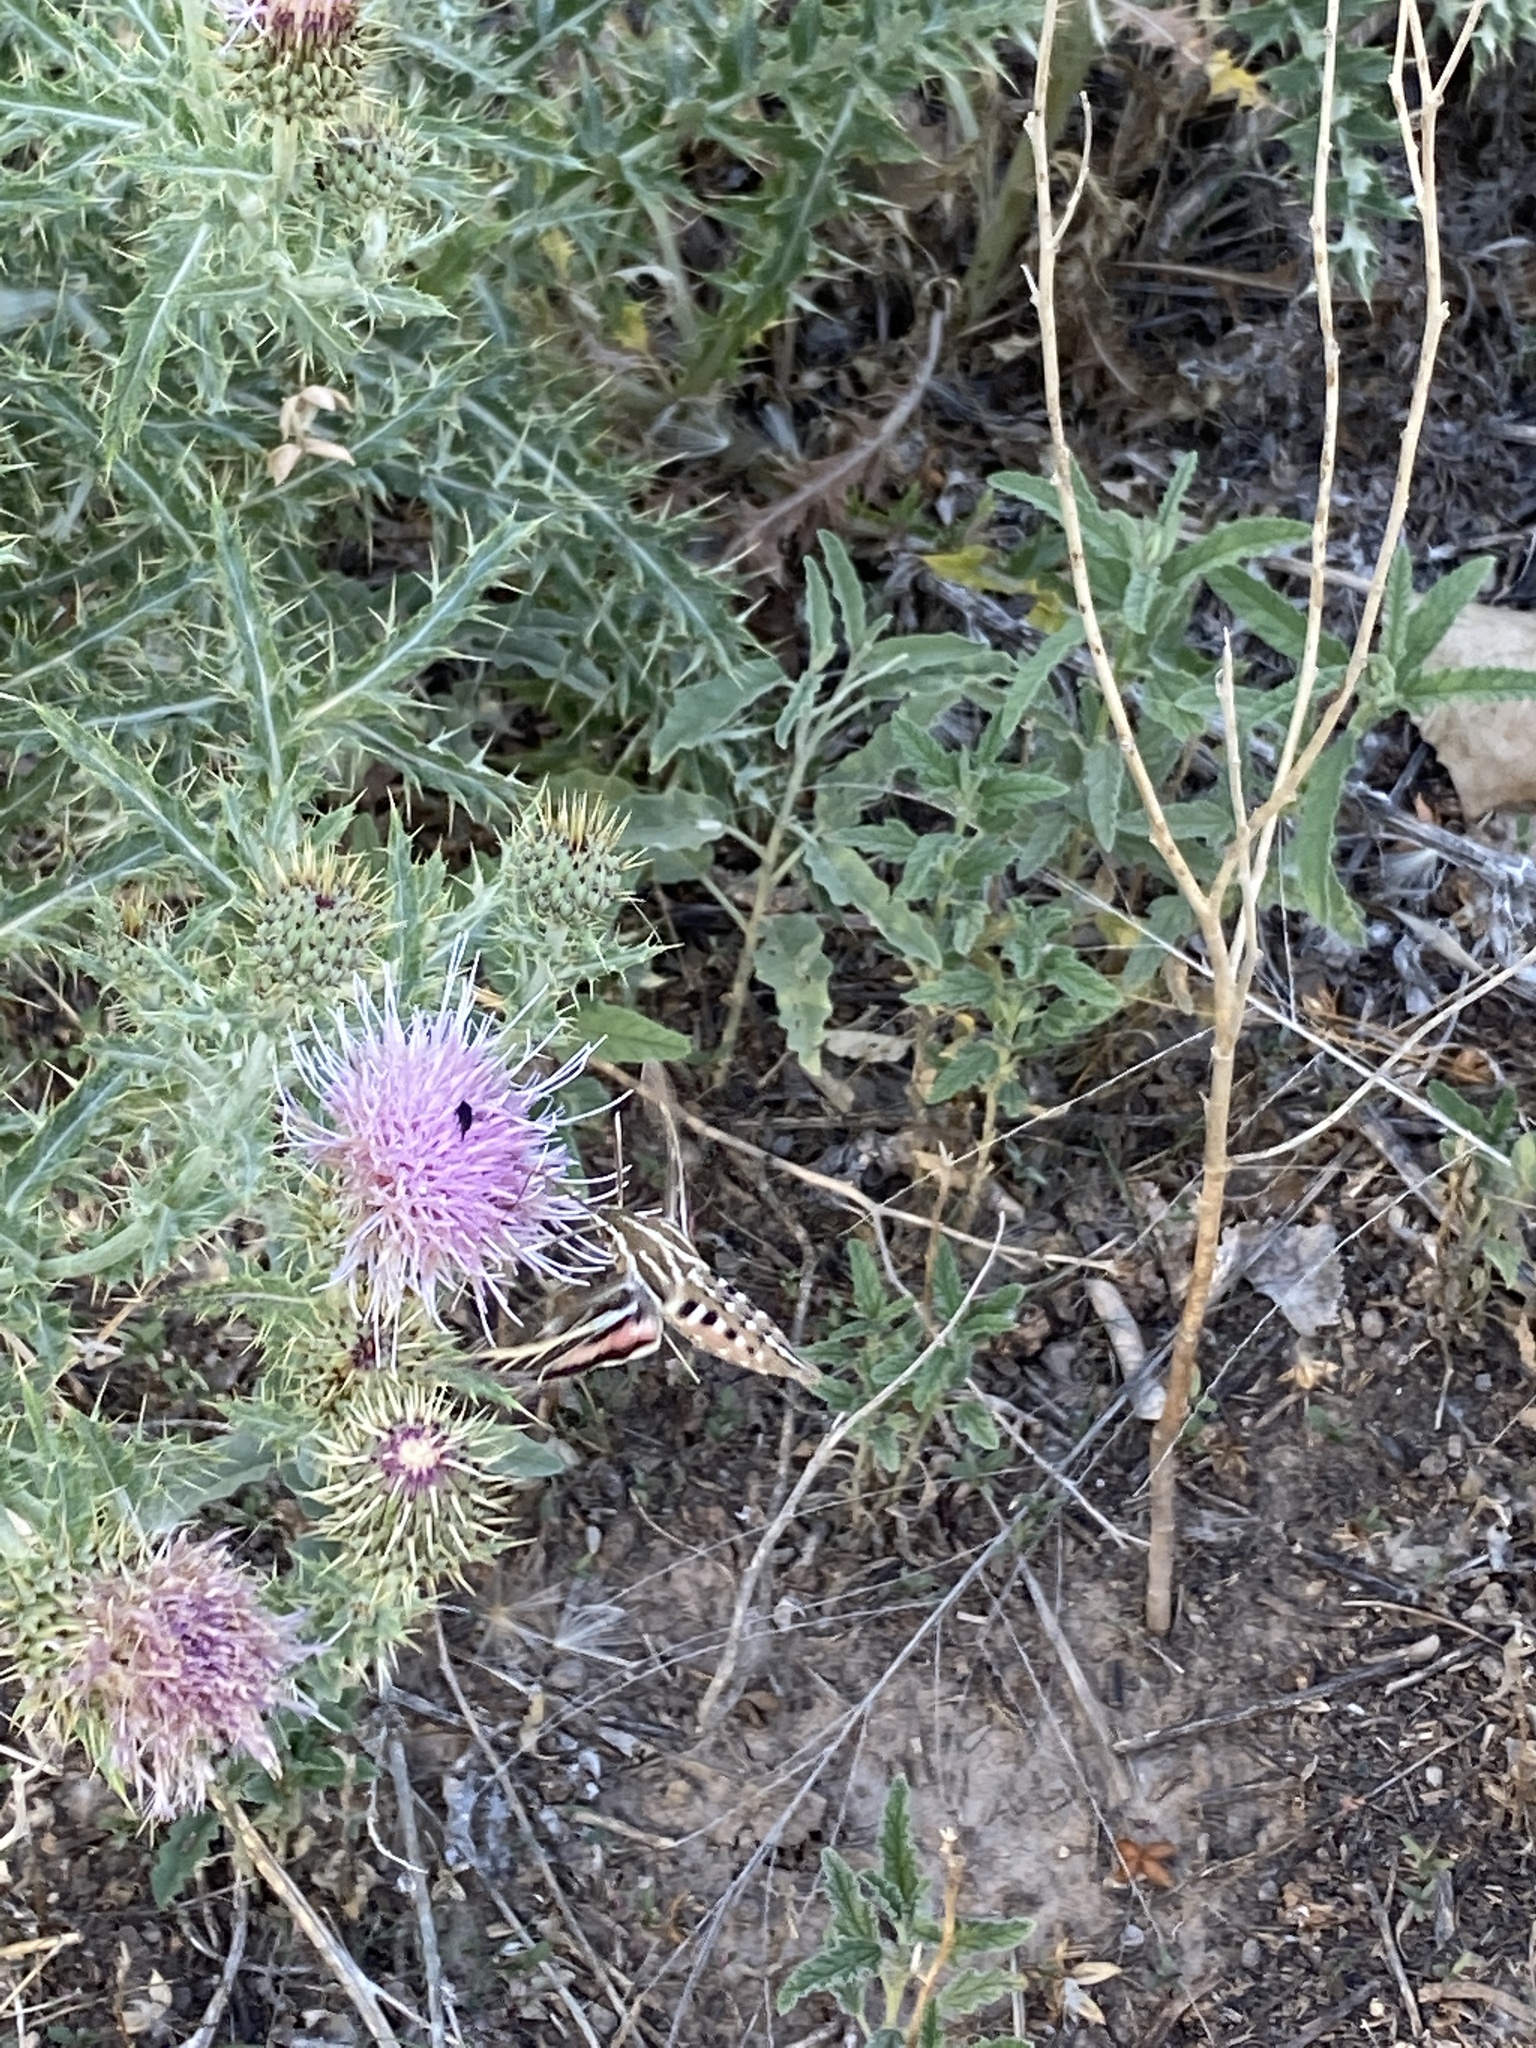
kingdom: Animalia
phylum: Arthropoda
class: Insecta
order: Lepidoptera
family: Sphingidae
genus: Hyles
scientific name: Hyles lineata
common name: White-lined sphinx
